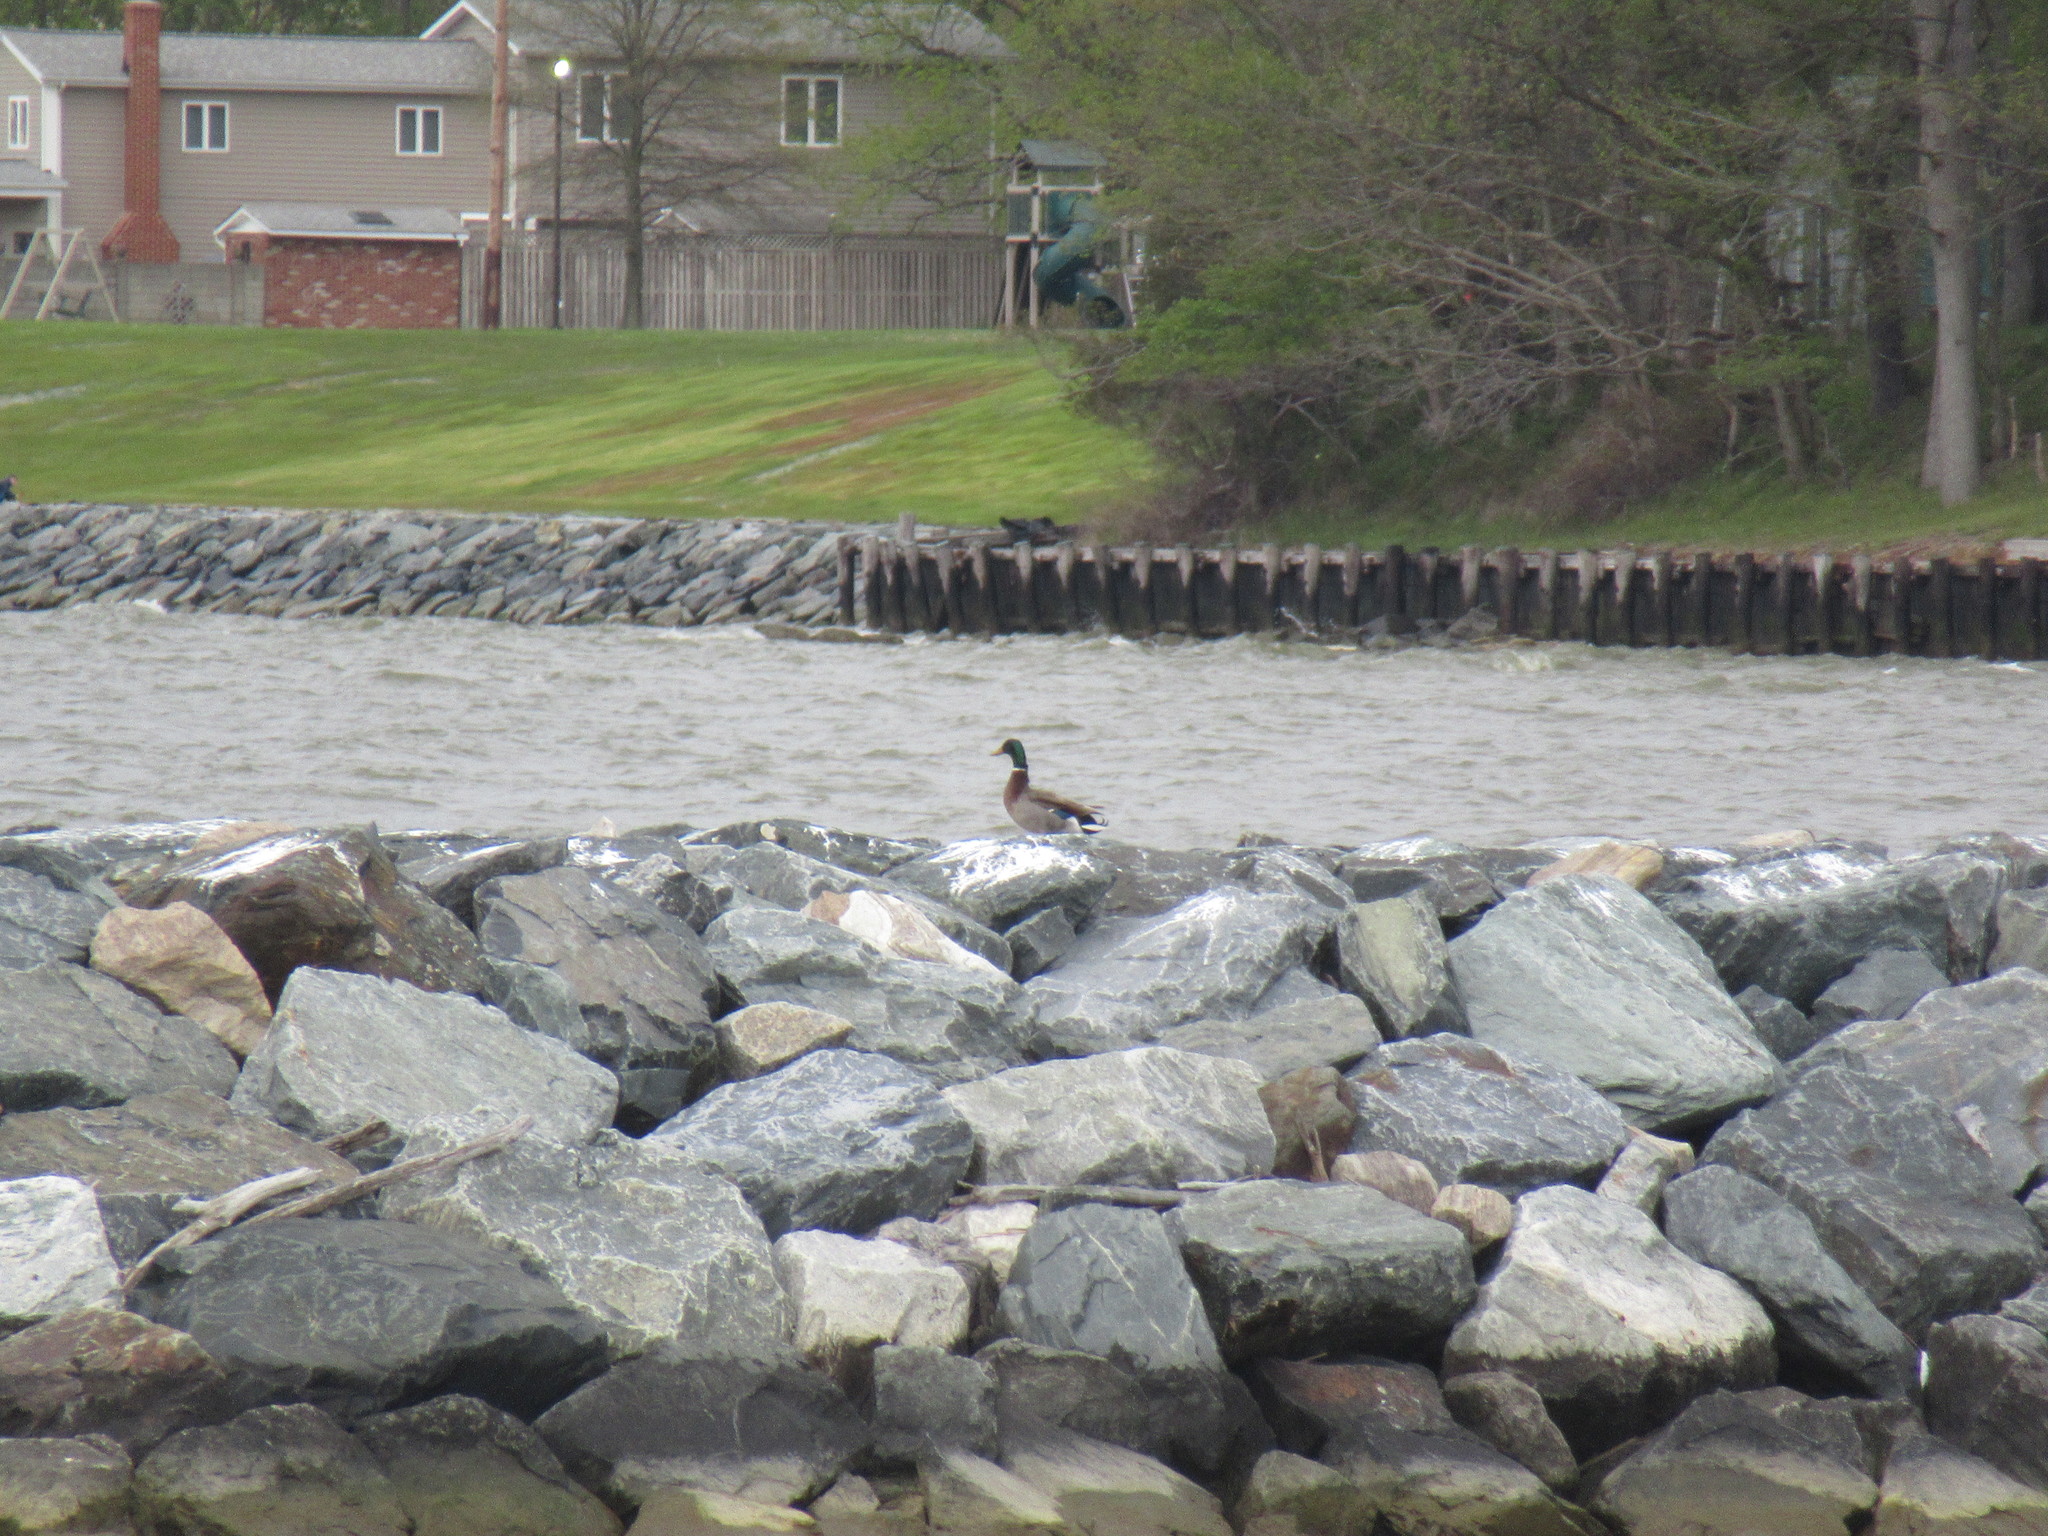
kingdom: Animalia
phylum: Chordata
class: Aves
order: Anseriformes
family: Anatidae
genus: Anas
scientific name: Anas platyrhynchos
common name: Mallard
